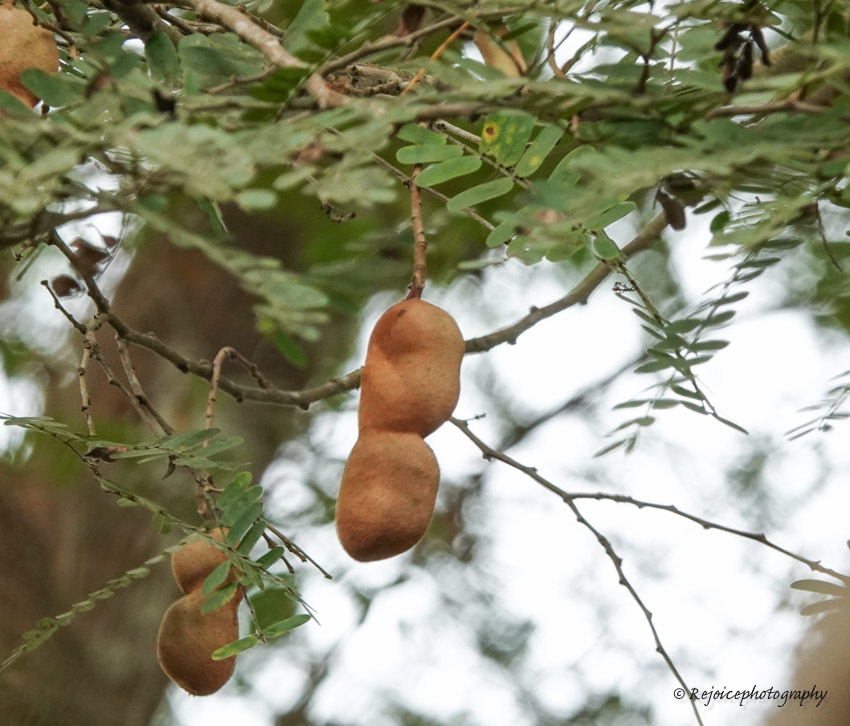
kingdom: Plantae
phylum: Tracheophyta
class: Magnoliopsida
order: Fabales
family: Fabaceae
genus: Tamarindus
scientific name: Tamarindus indica
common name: Tamarind
